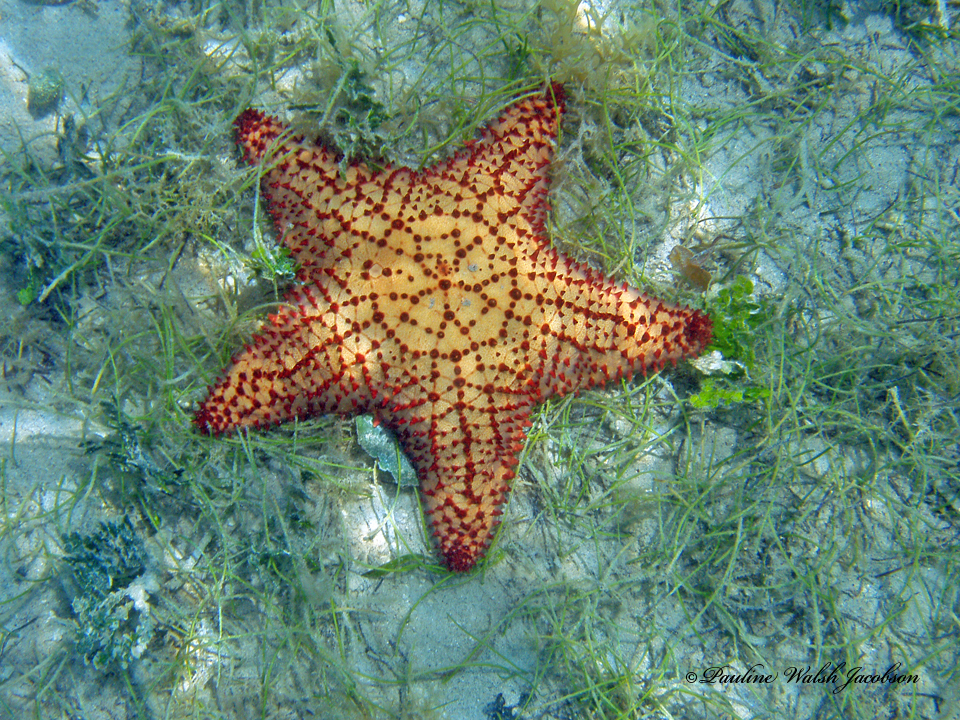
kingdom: Animalia
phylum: Echinodermata
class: Asteroidea
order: Valvatida
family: Oreasteridae
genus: Oreaster
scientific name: Oreaster reticulatus
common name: Cushion sea star
